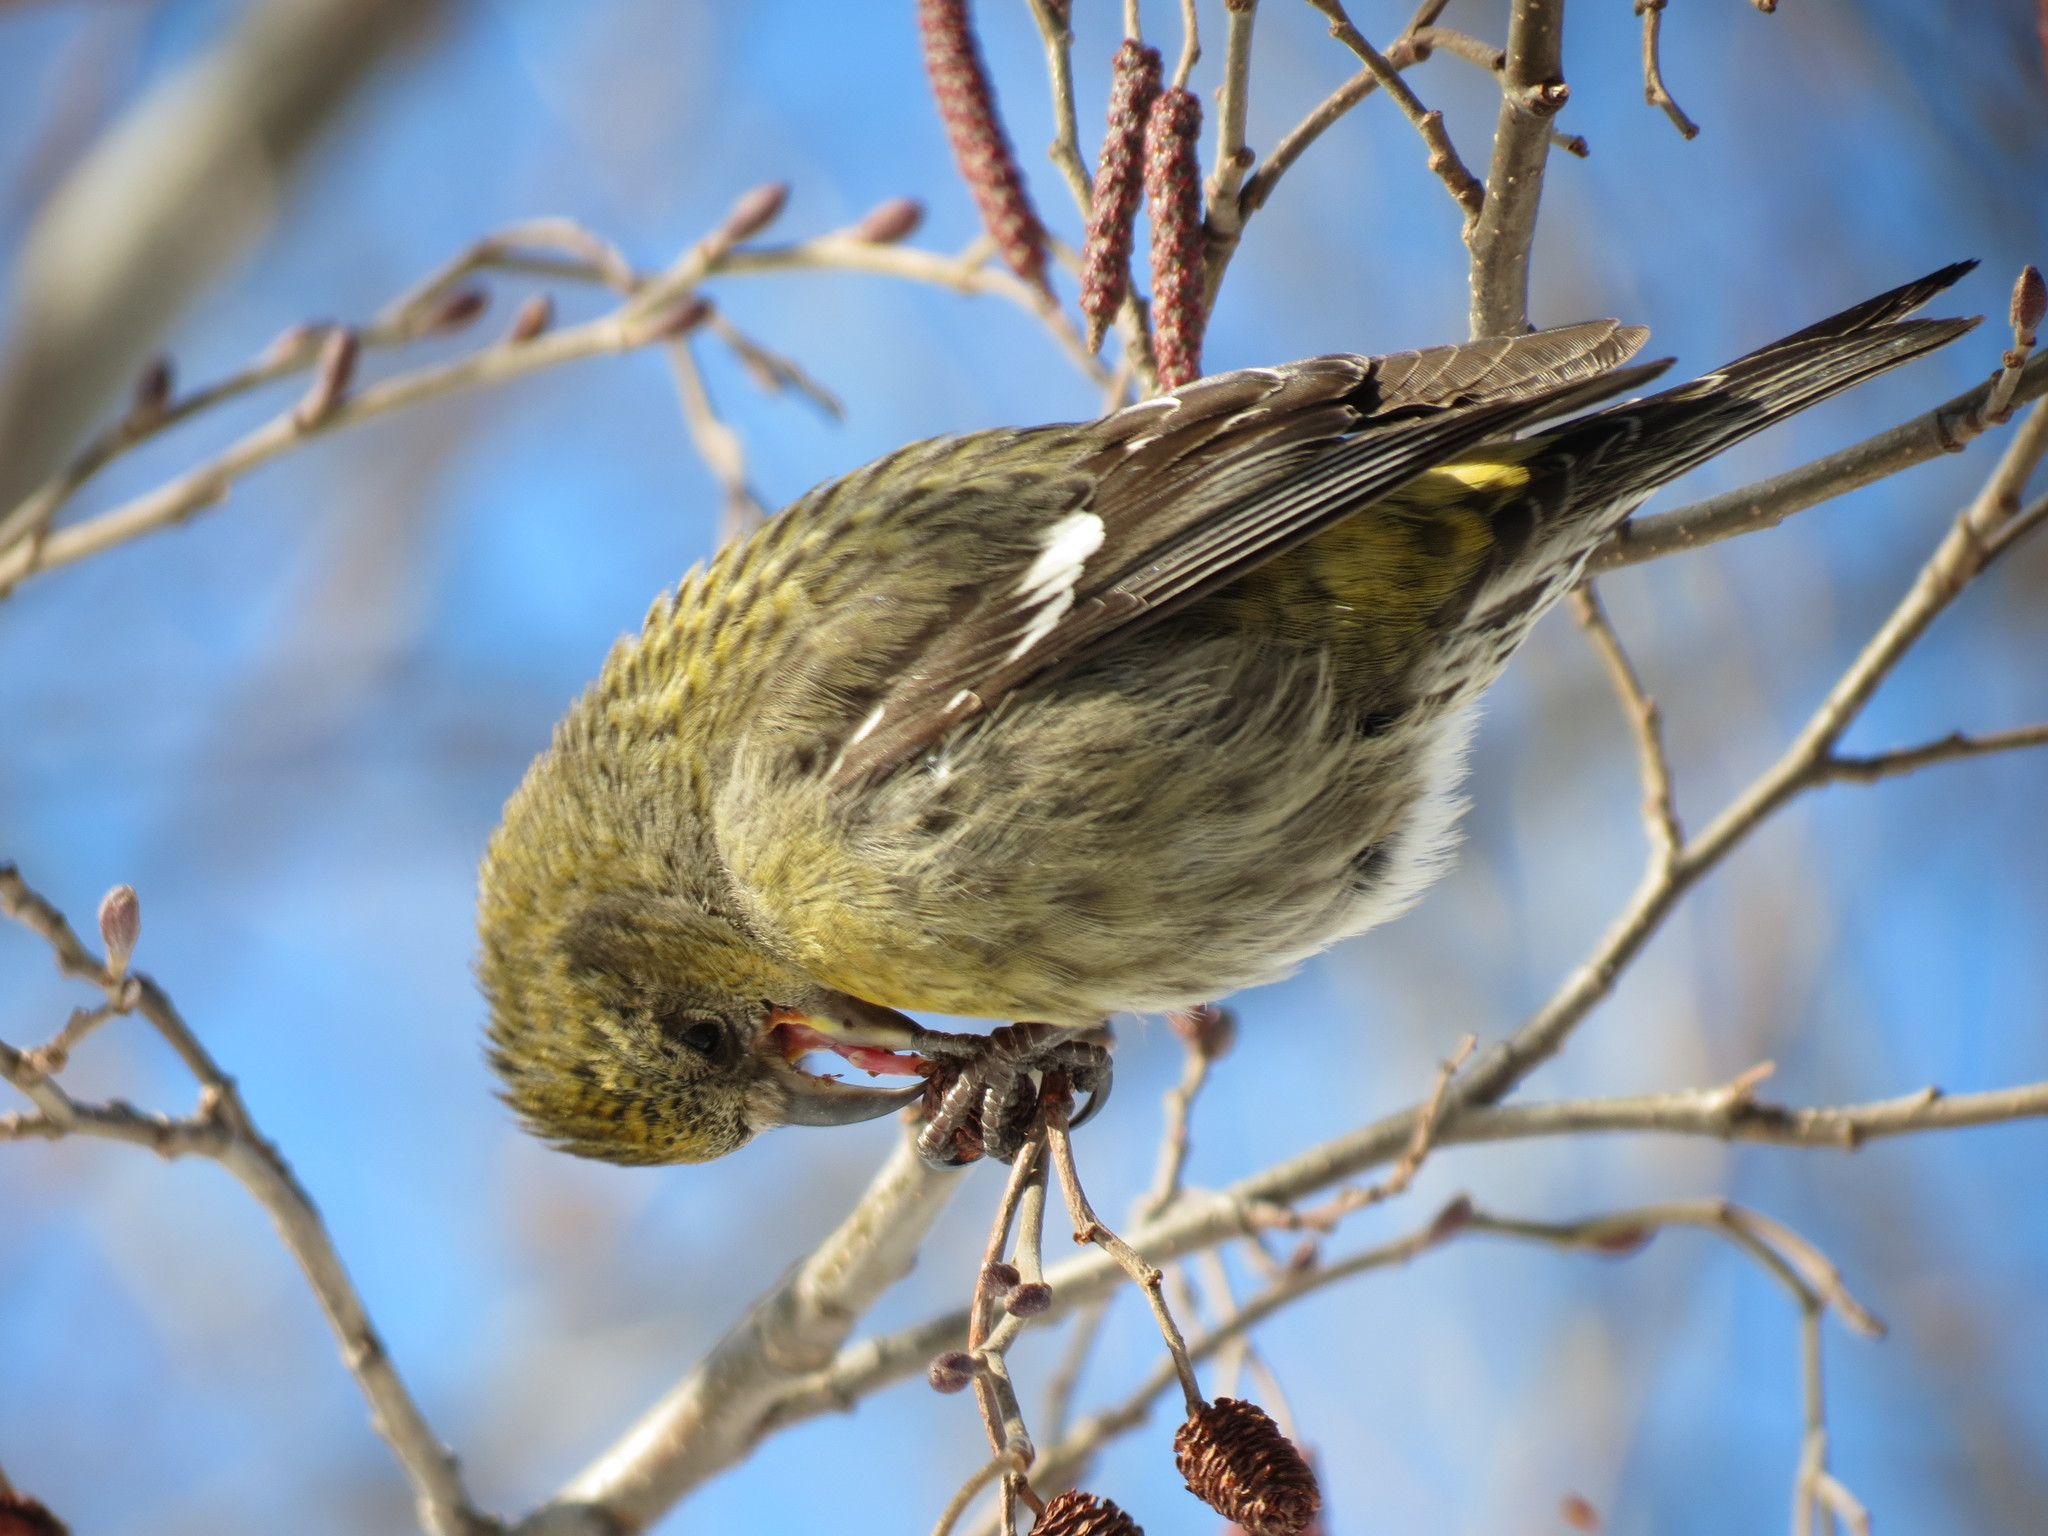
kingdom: Animalia
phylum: Chordata
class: Aves
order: Passeriformes
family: Fringillidae
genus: Loxia
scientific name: Loxia leucoptera
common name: Two-barred crossbill
